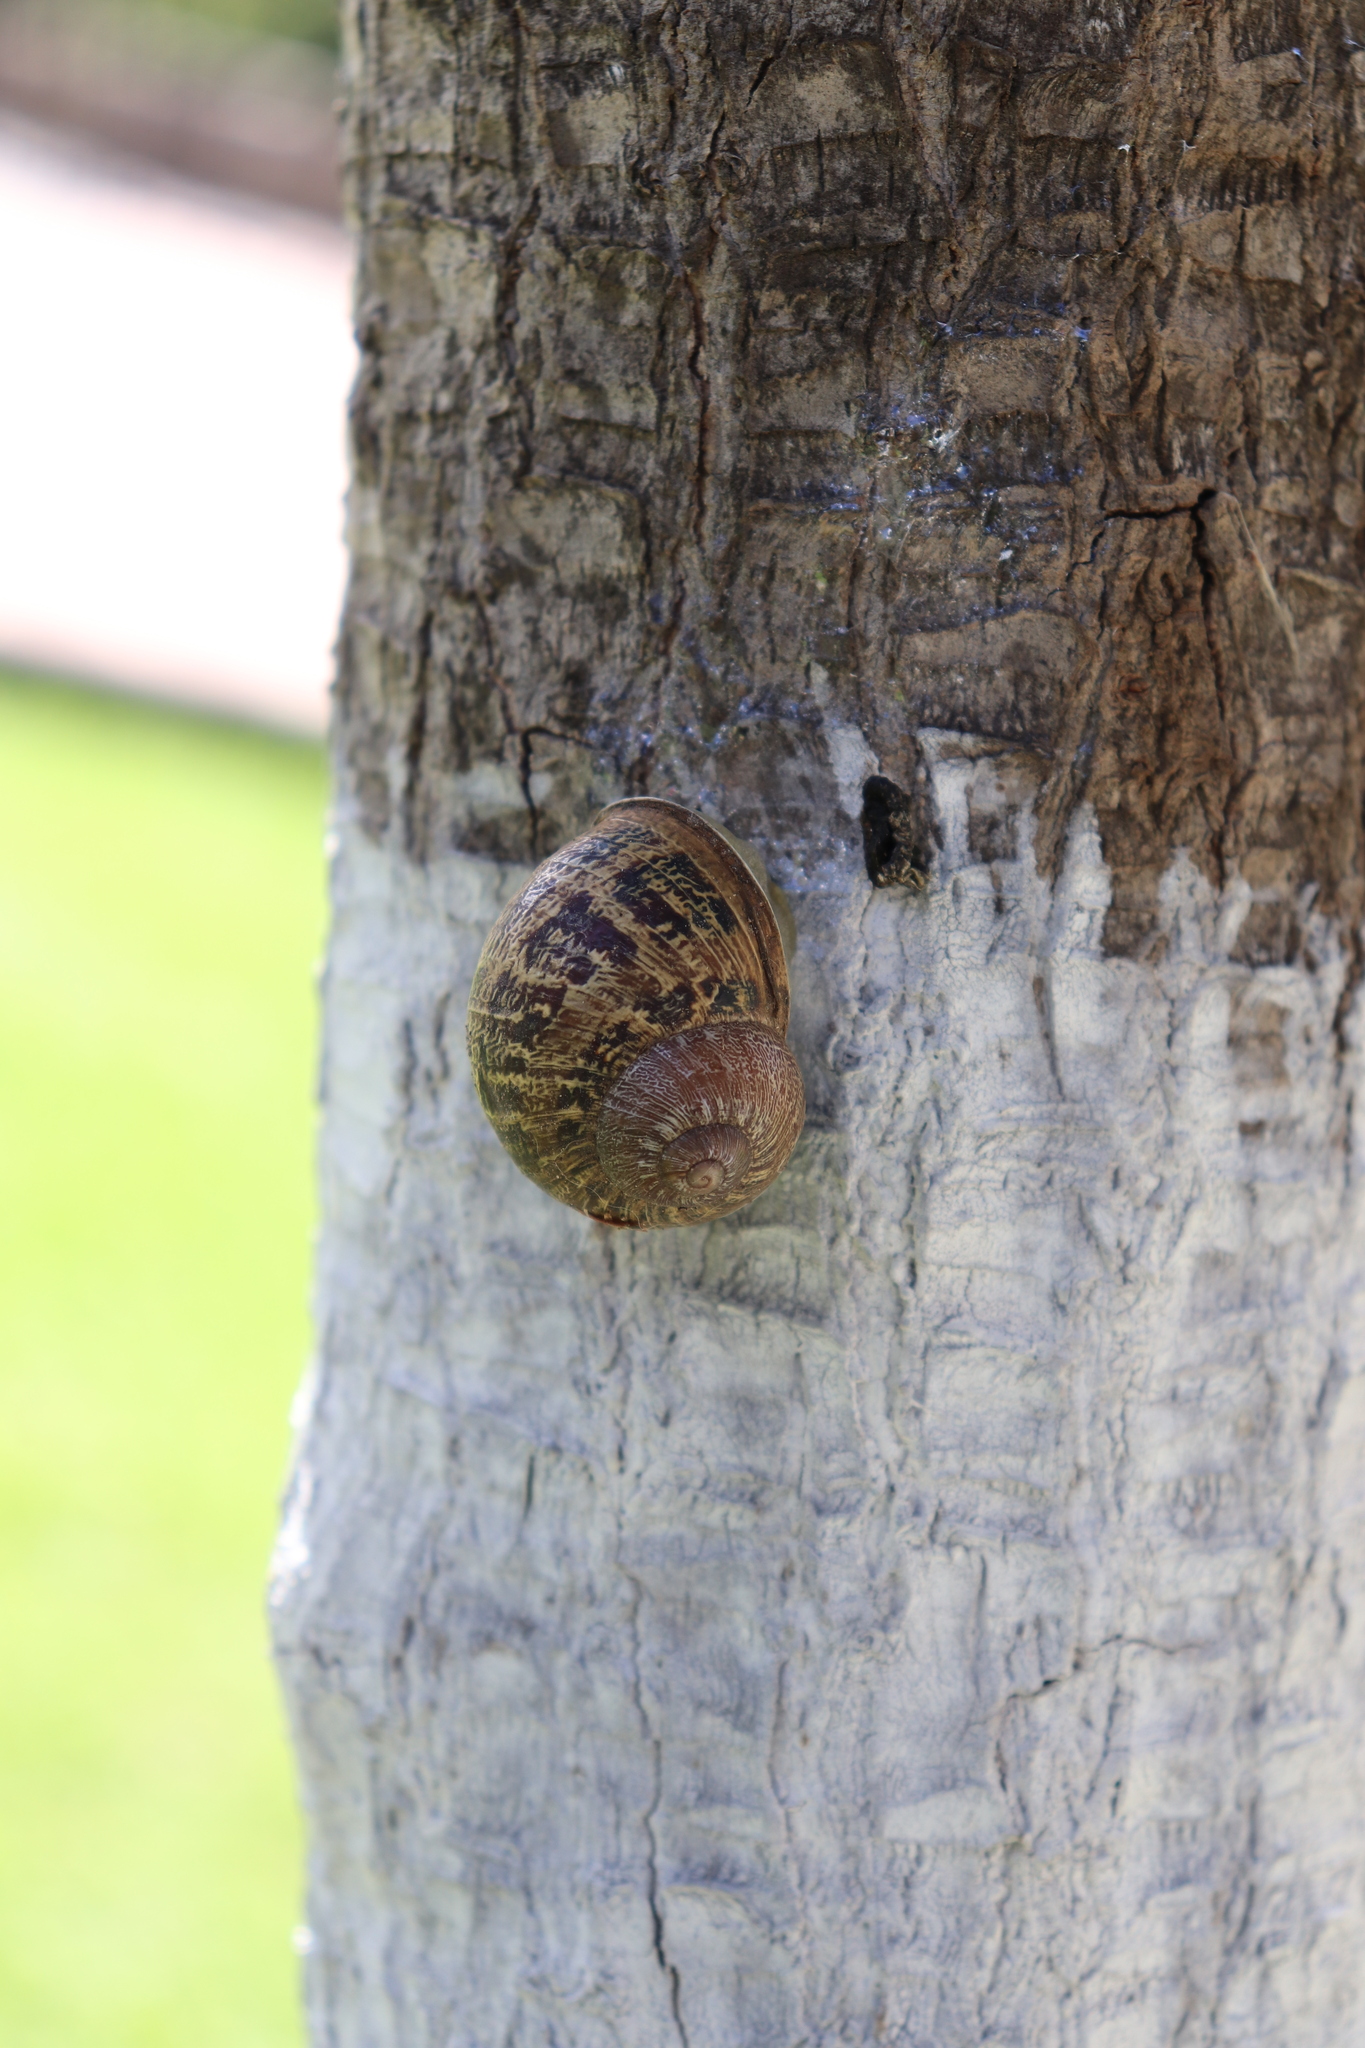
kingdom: Animalia
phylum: Mollusca
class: Gastropoda
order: Stylommatophora
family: Helicidae
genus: Cornu
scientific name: Cornu aspersum
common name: Brown garden snail
